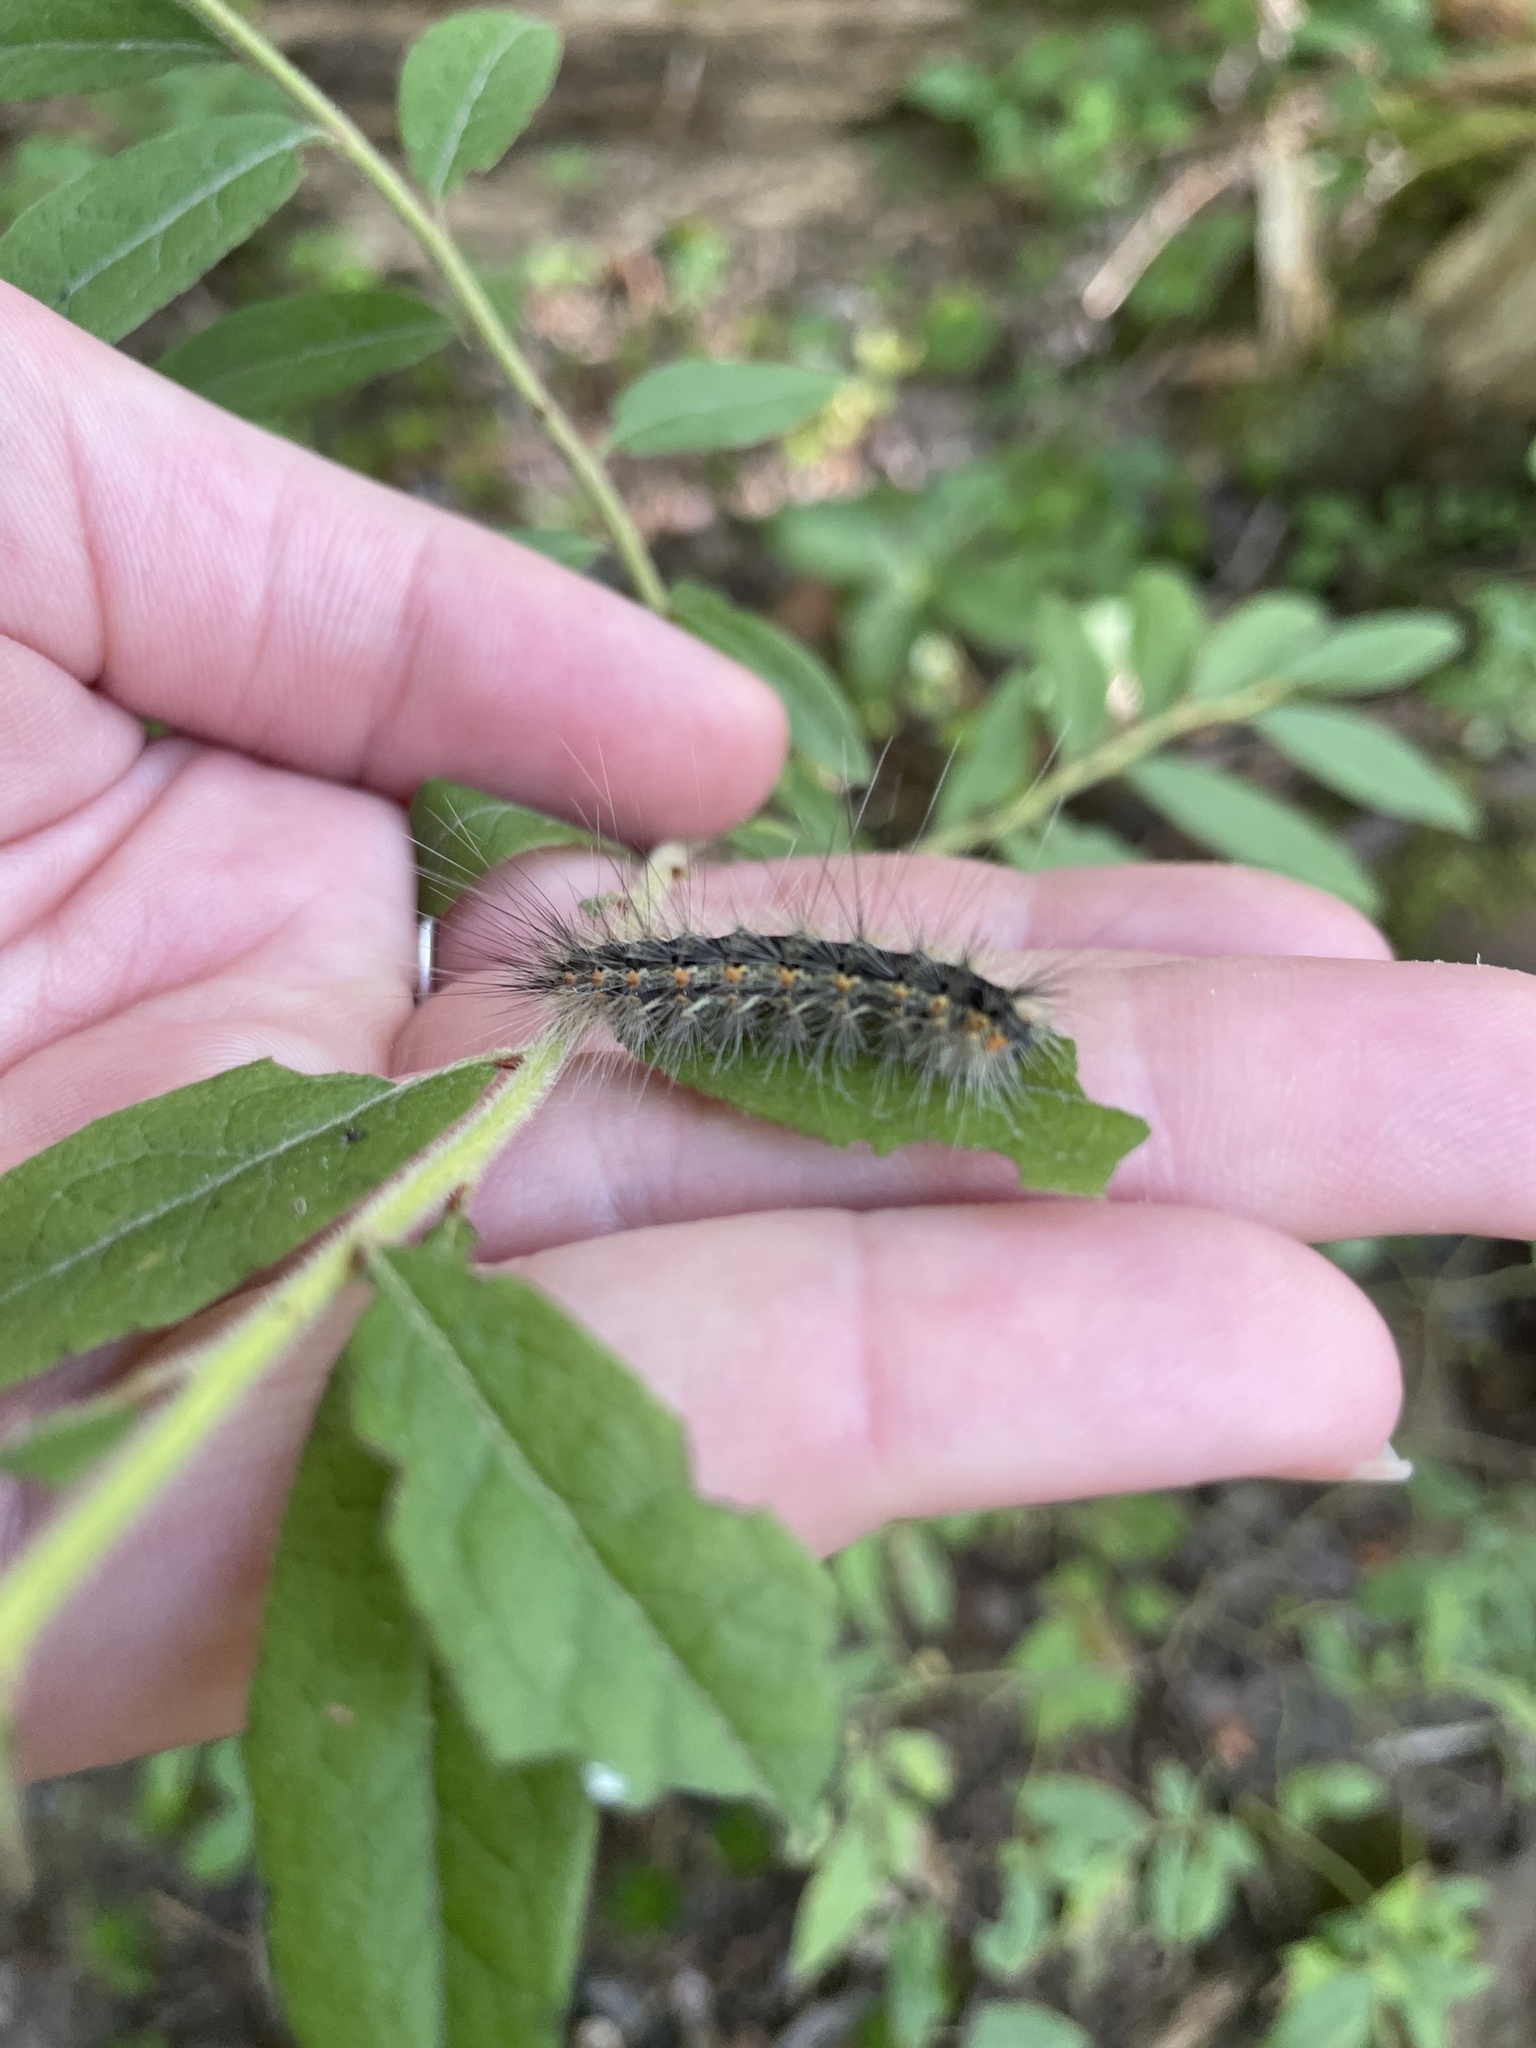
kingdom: Animalia
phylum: Arthropoda
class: Insecta
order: Lepidoptera
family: Erebidae
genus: Hyphantria
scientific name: Hyphantria cunea
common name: American white moth
